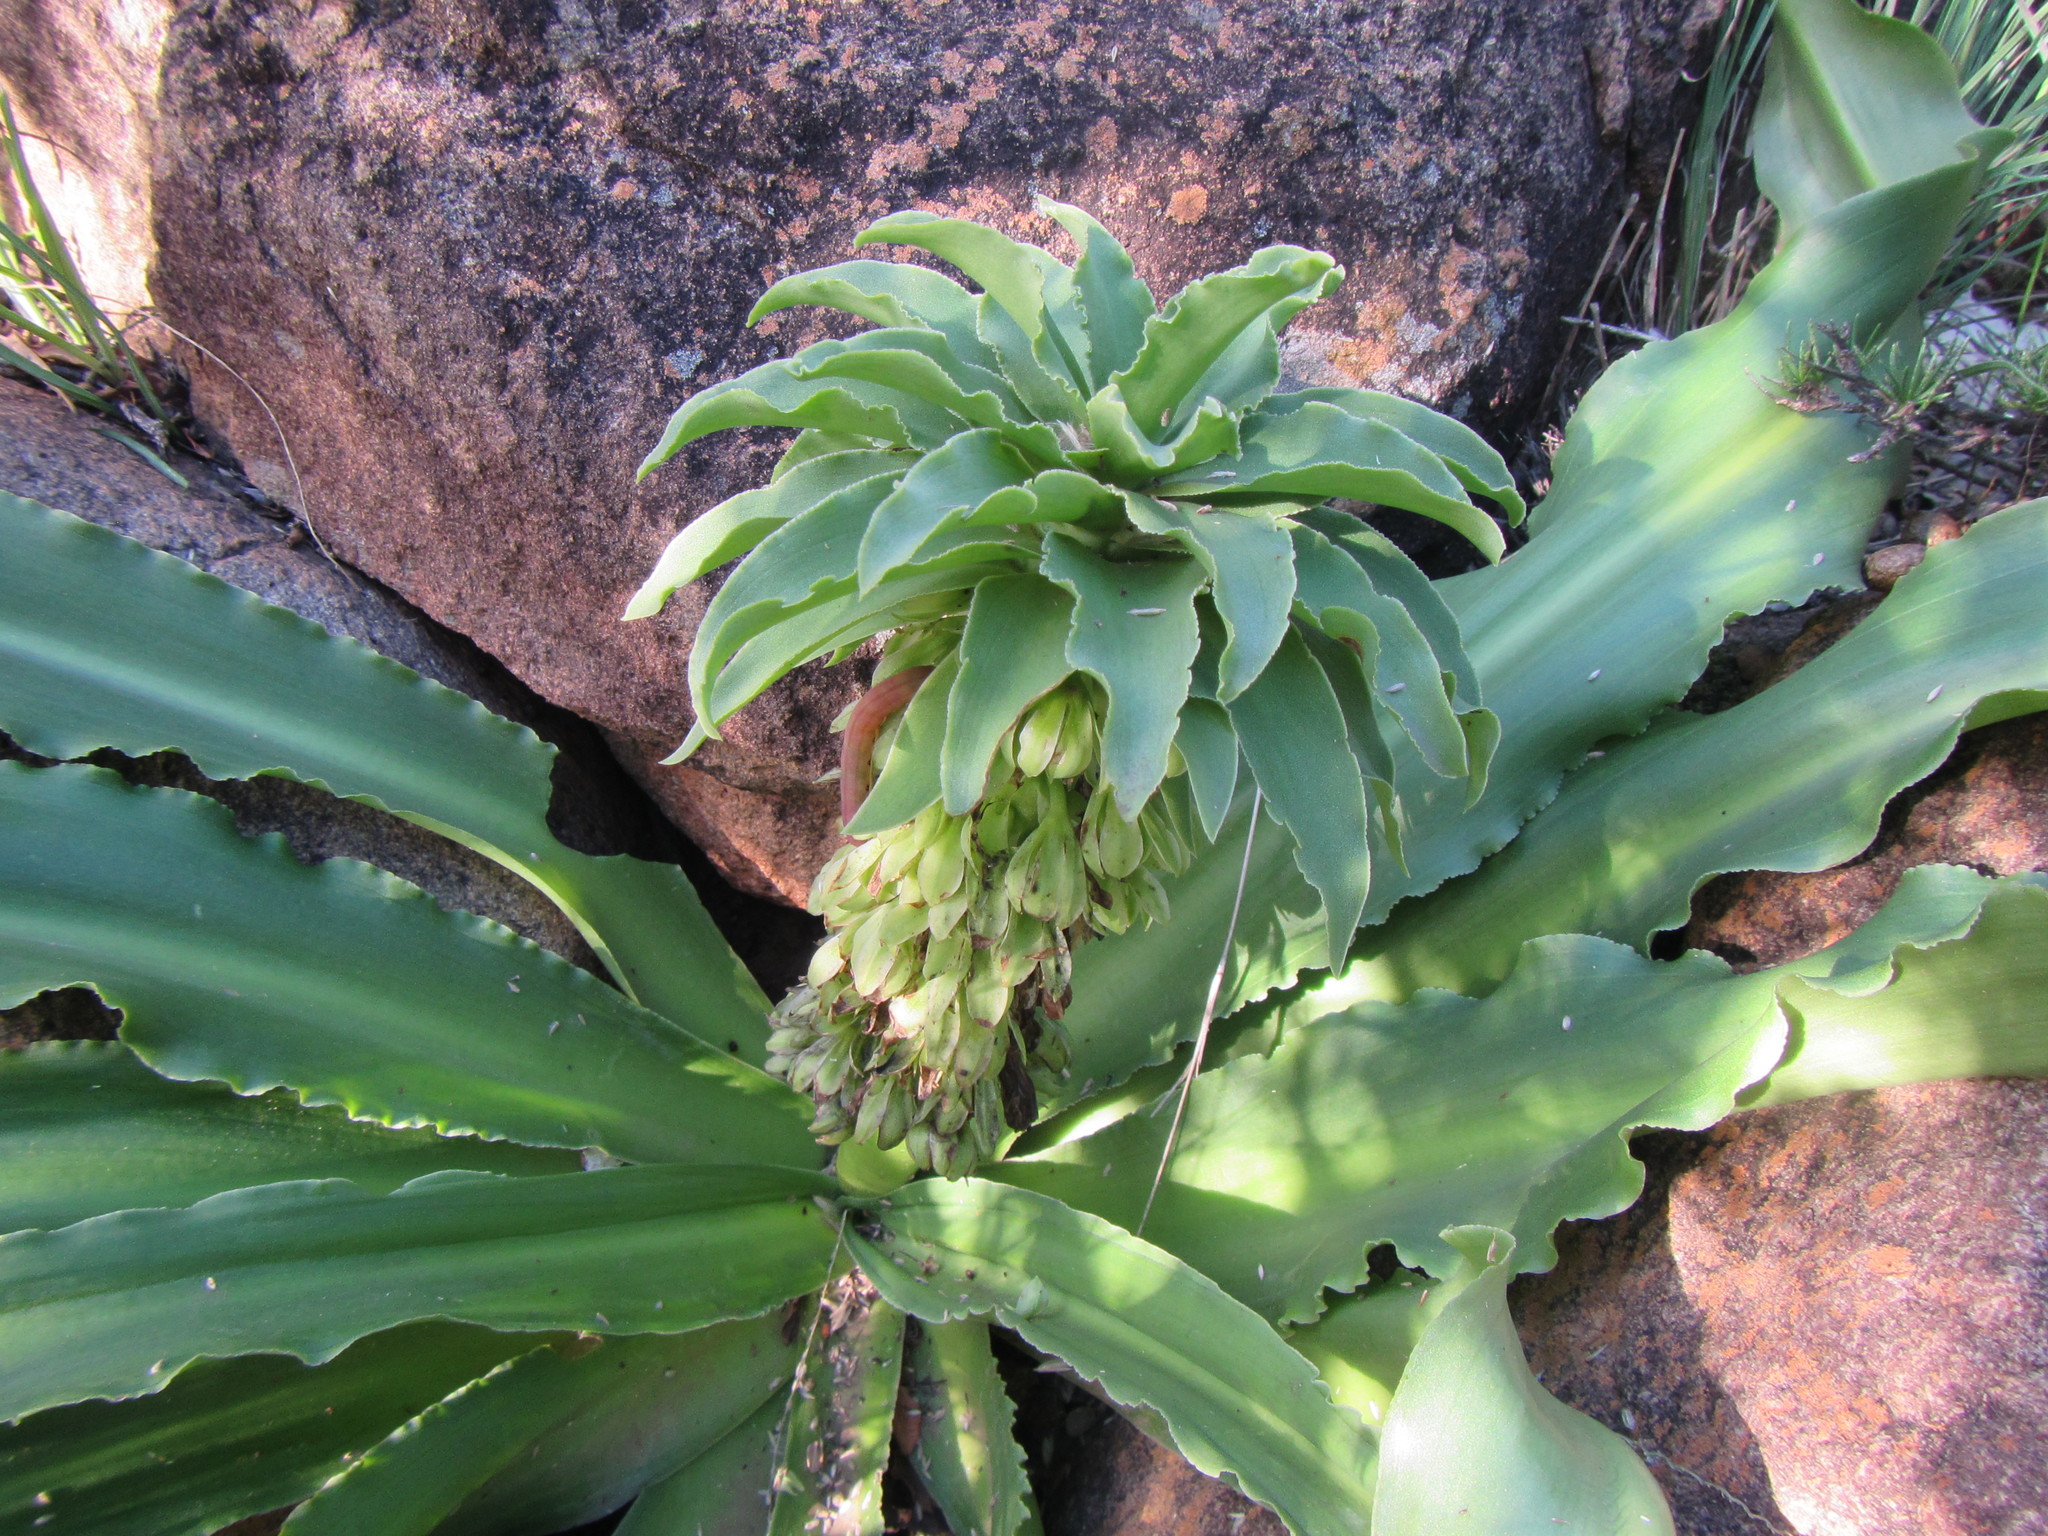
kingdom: Plantae
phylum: Tracheophyta
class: Liliopsida
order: Asparagales
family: Asparagaceae
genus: Eucomis
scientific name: Eucomis autumnalis
